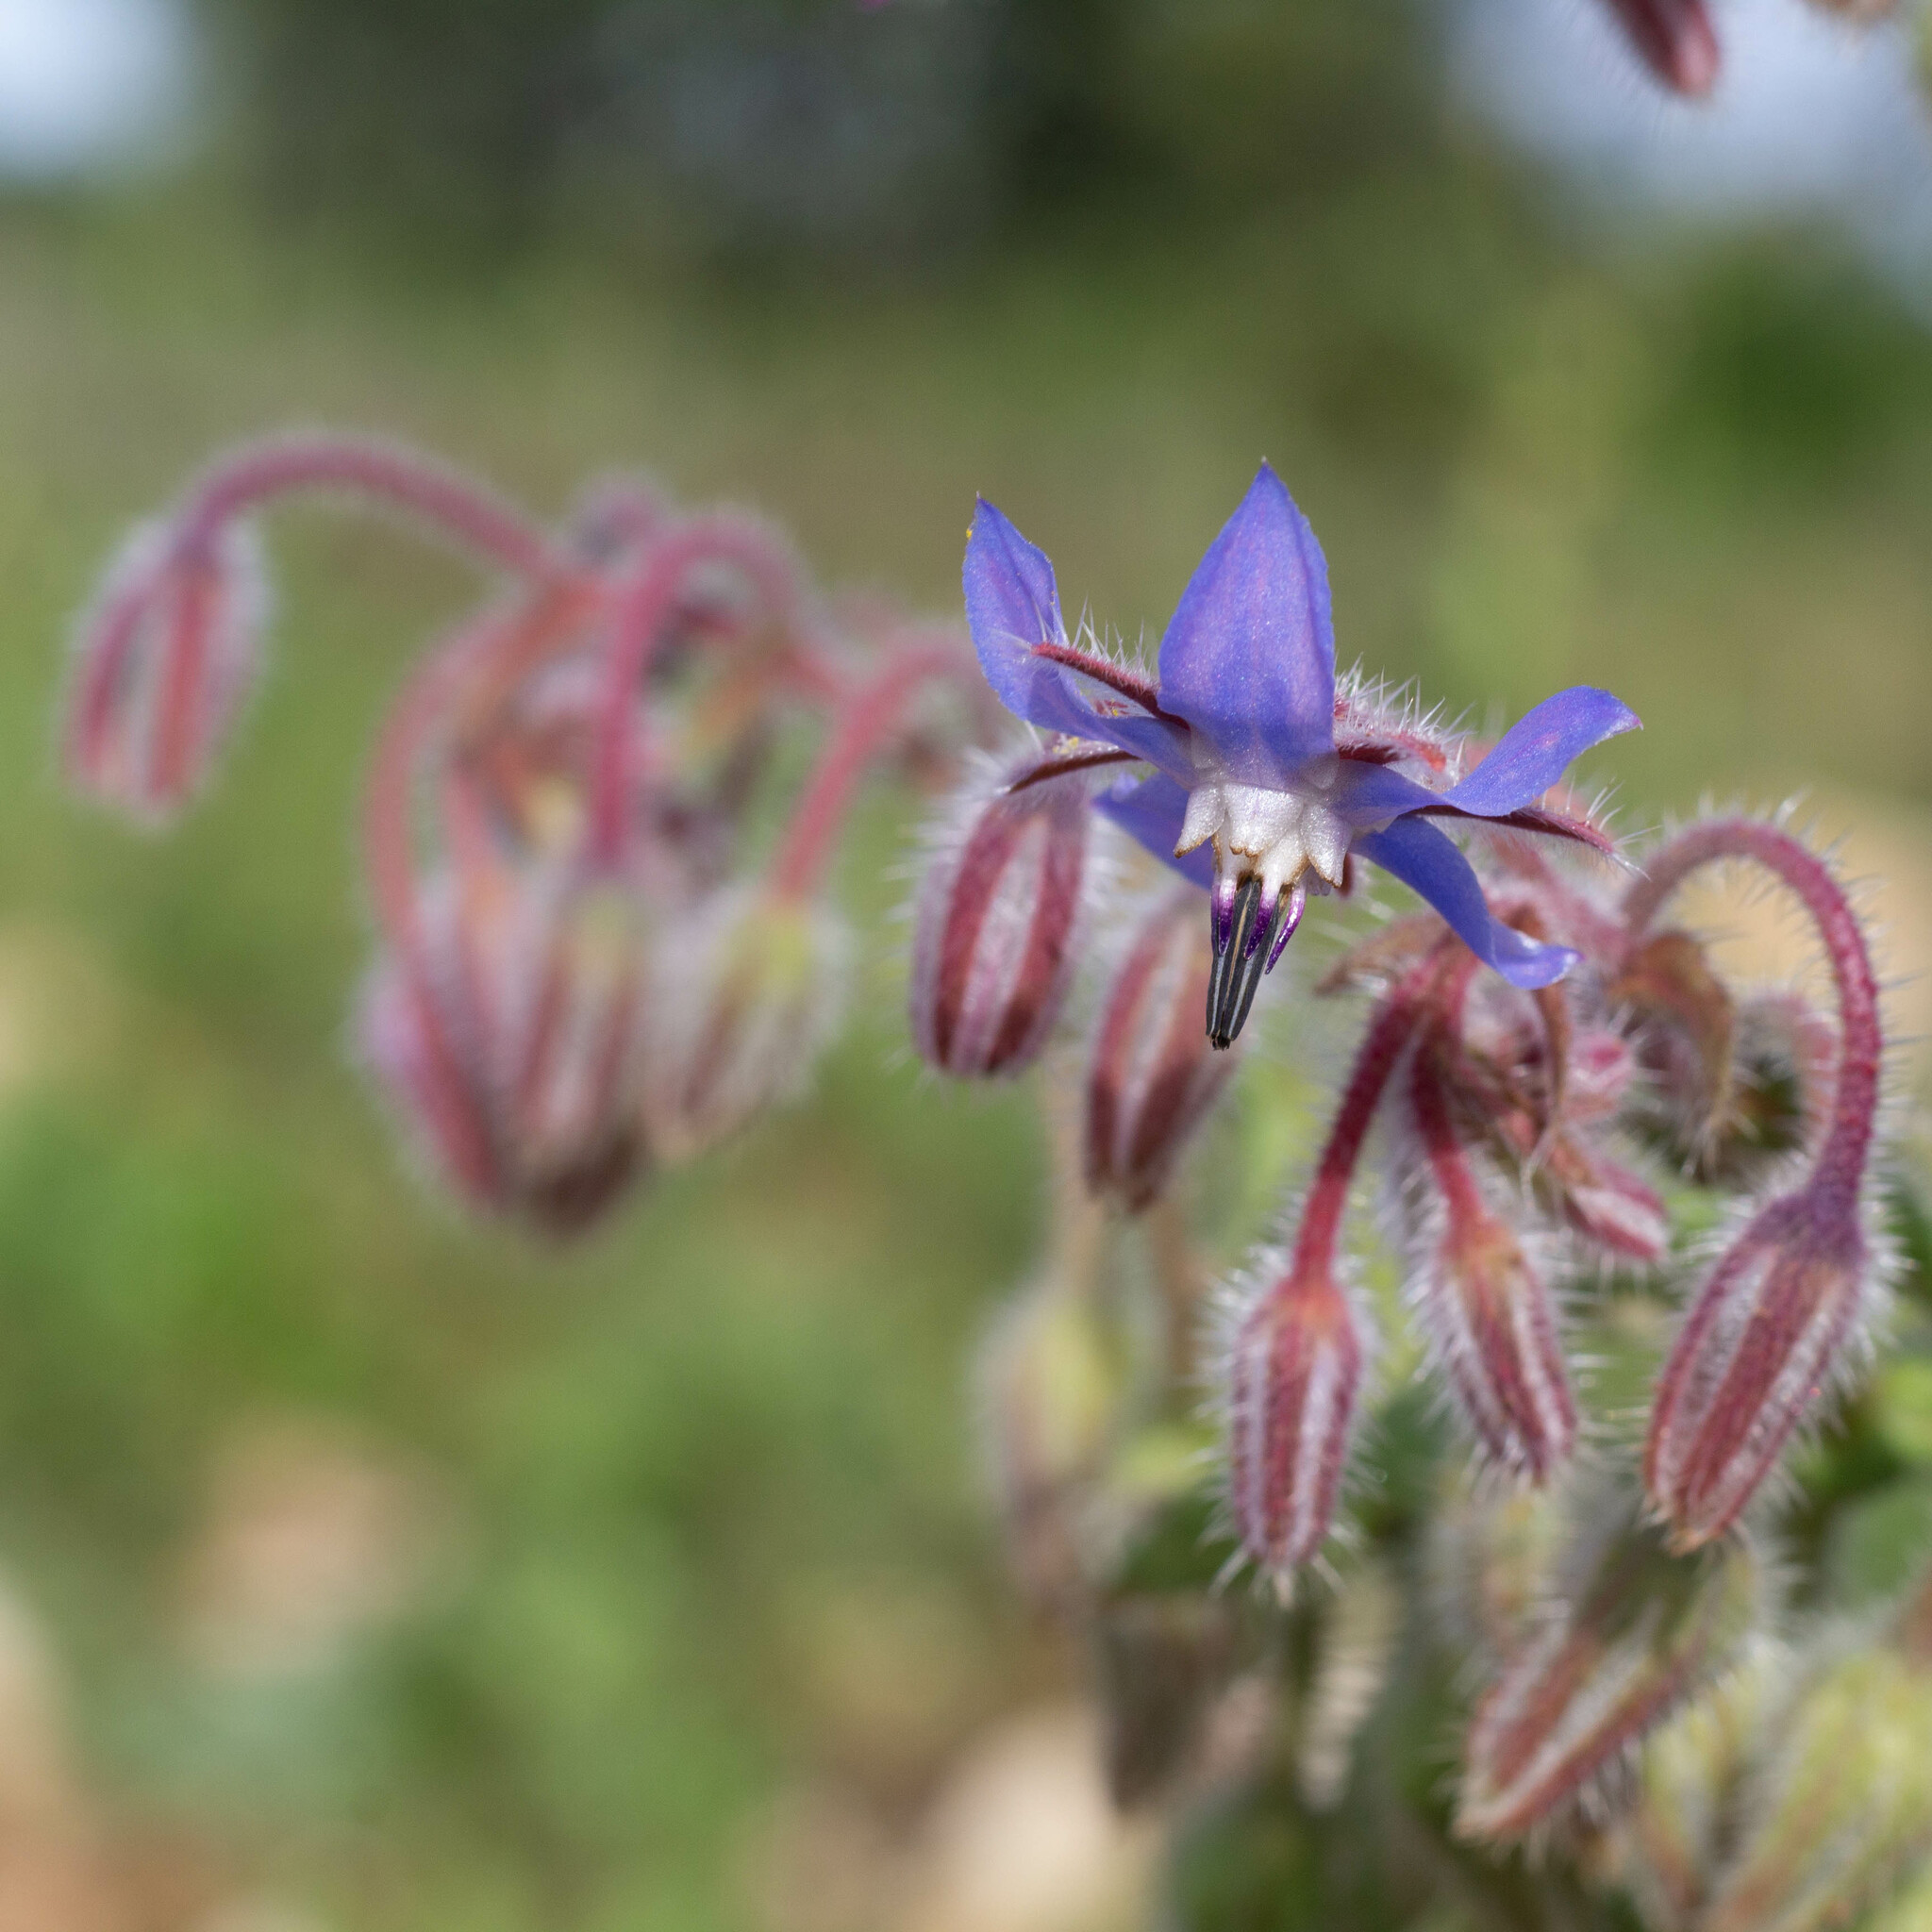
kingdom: Plantae
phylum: Tracheophyta
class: Magnoliopsida
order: Boraginales
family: Boraginaceae
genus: Borago
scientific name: Borago officinalis
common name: Borage
